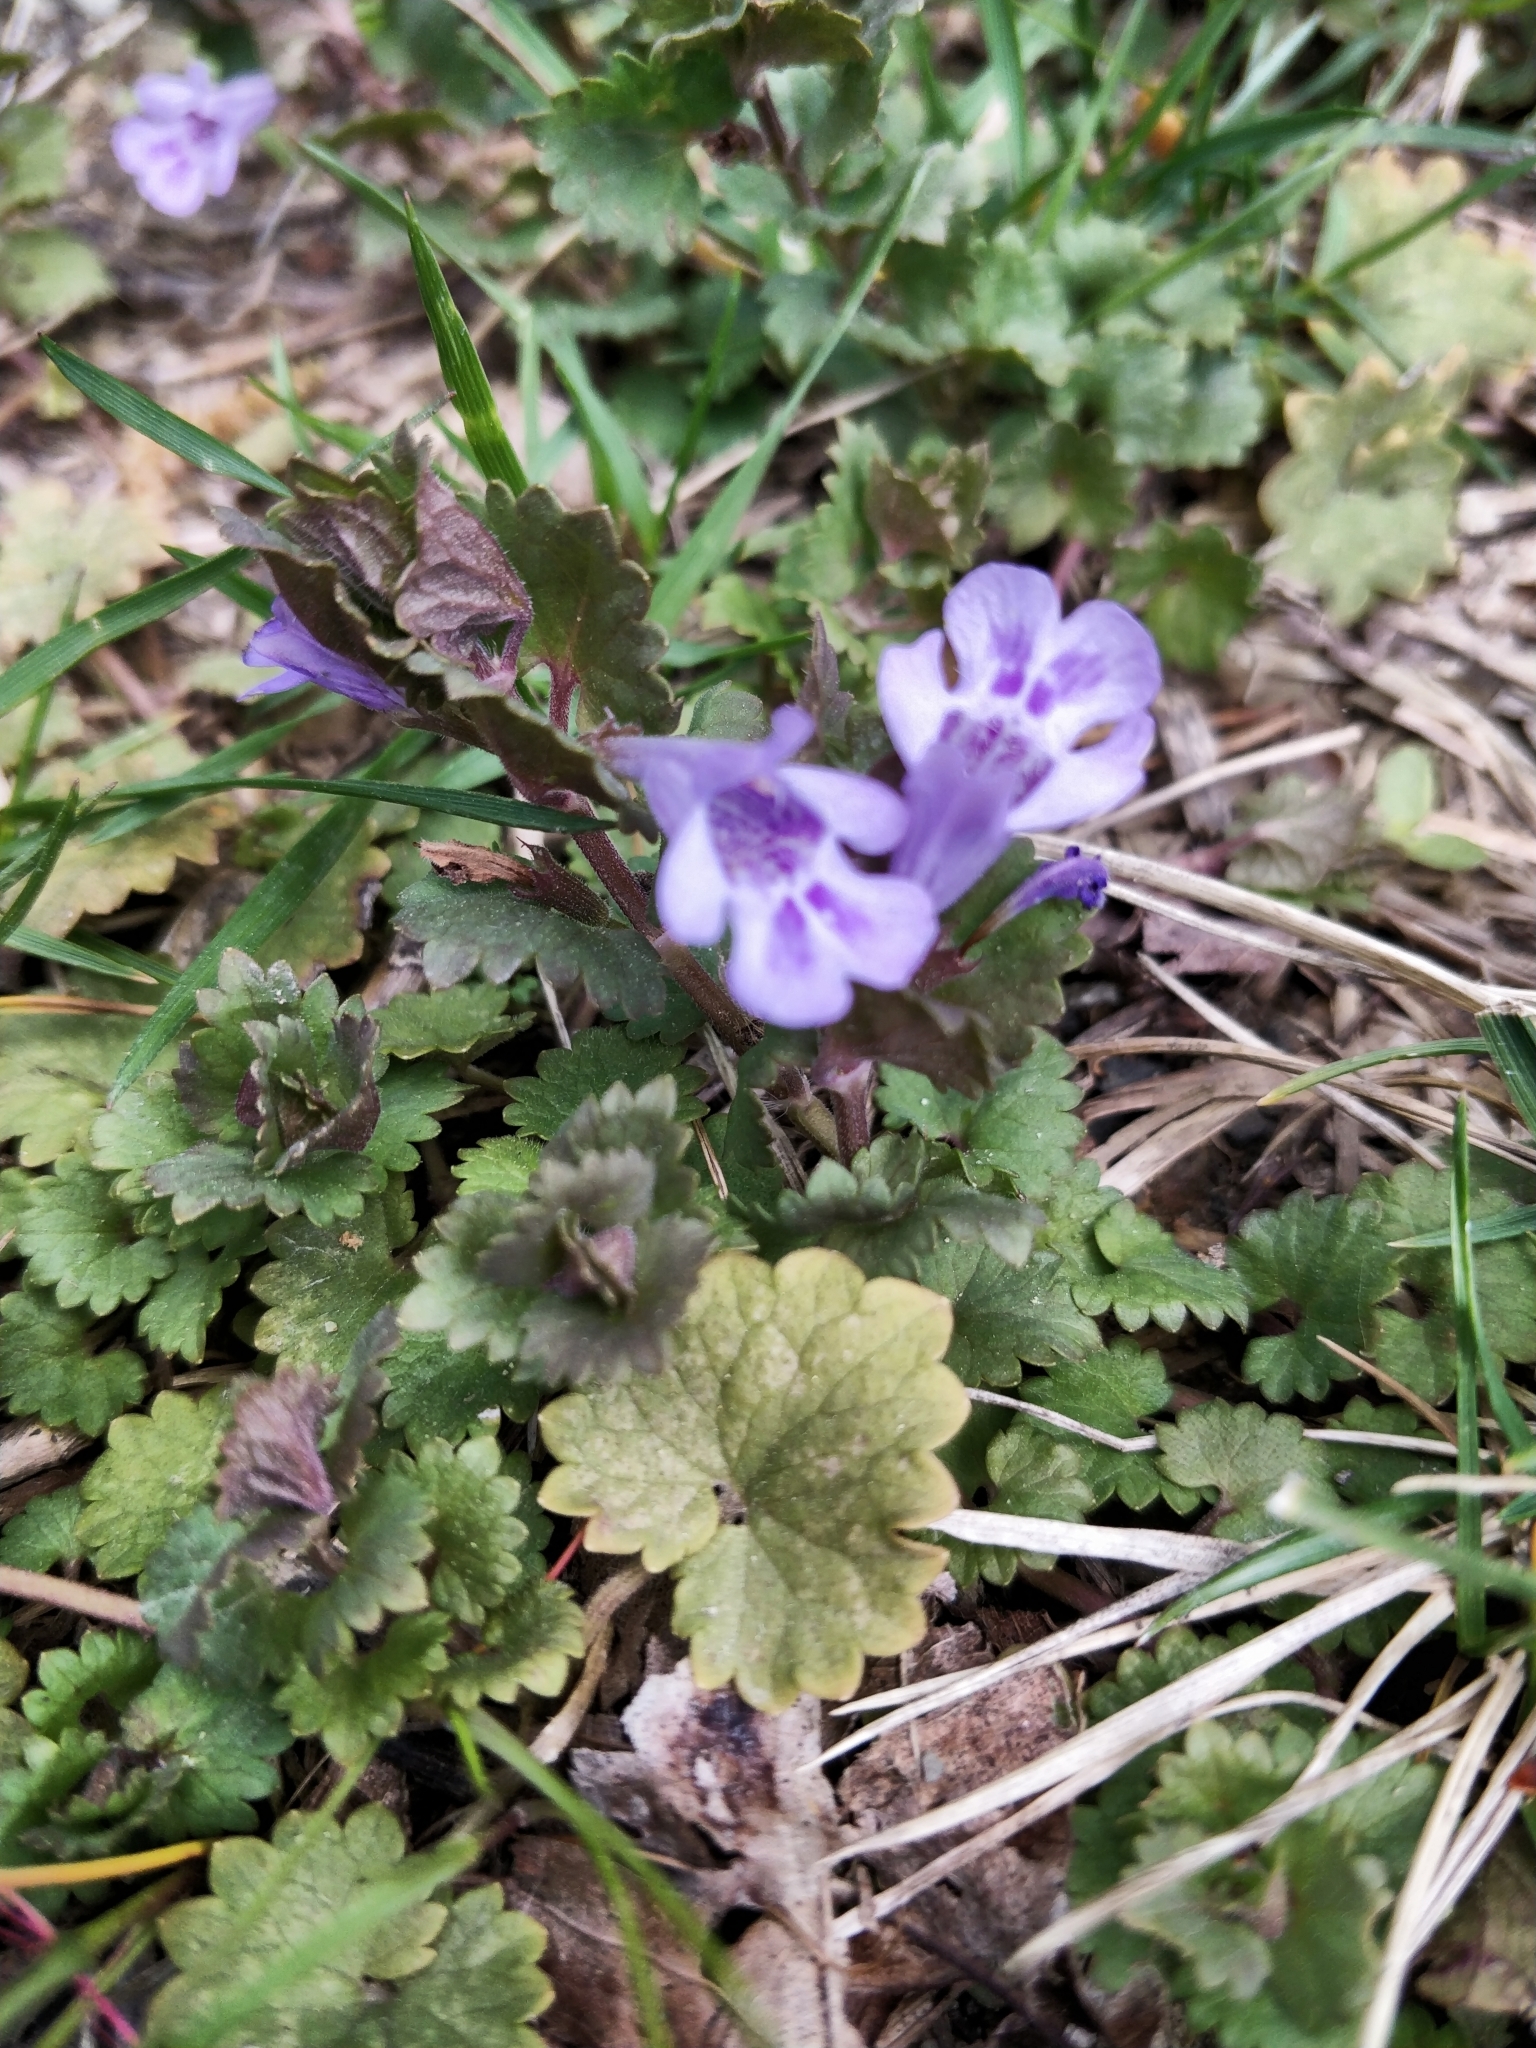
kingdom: Plantae
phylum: Tracheophyta
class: Magnoliopsida
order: Lamiales
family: Lamiaceae
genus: Glechoma
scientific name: Glechoma hederacea
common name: Ground ivy
